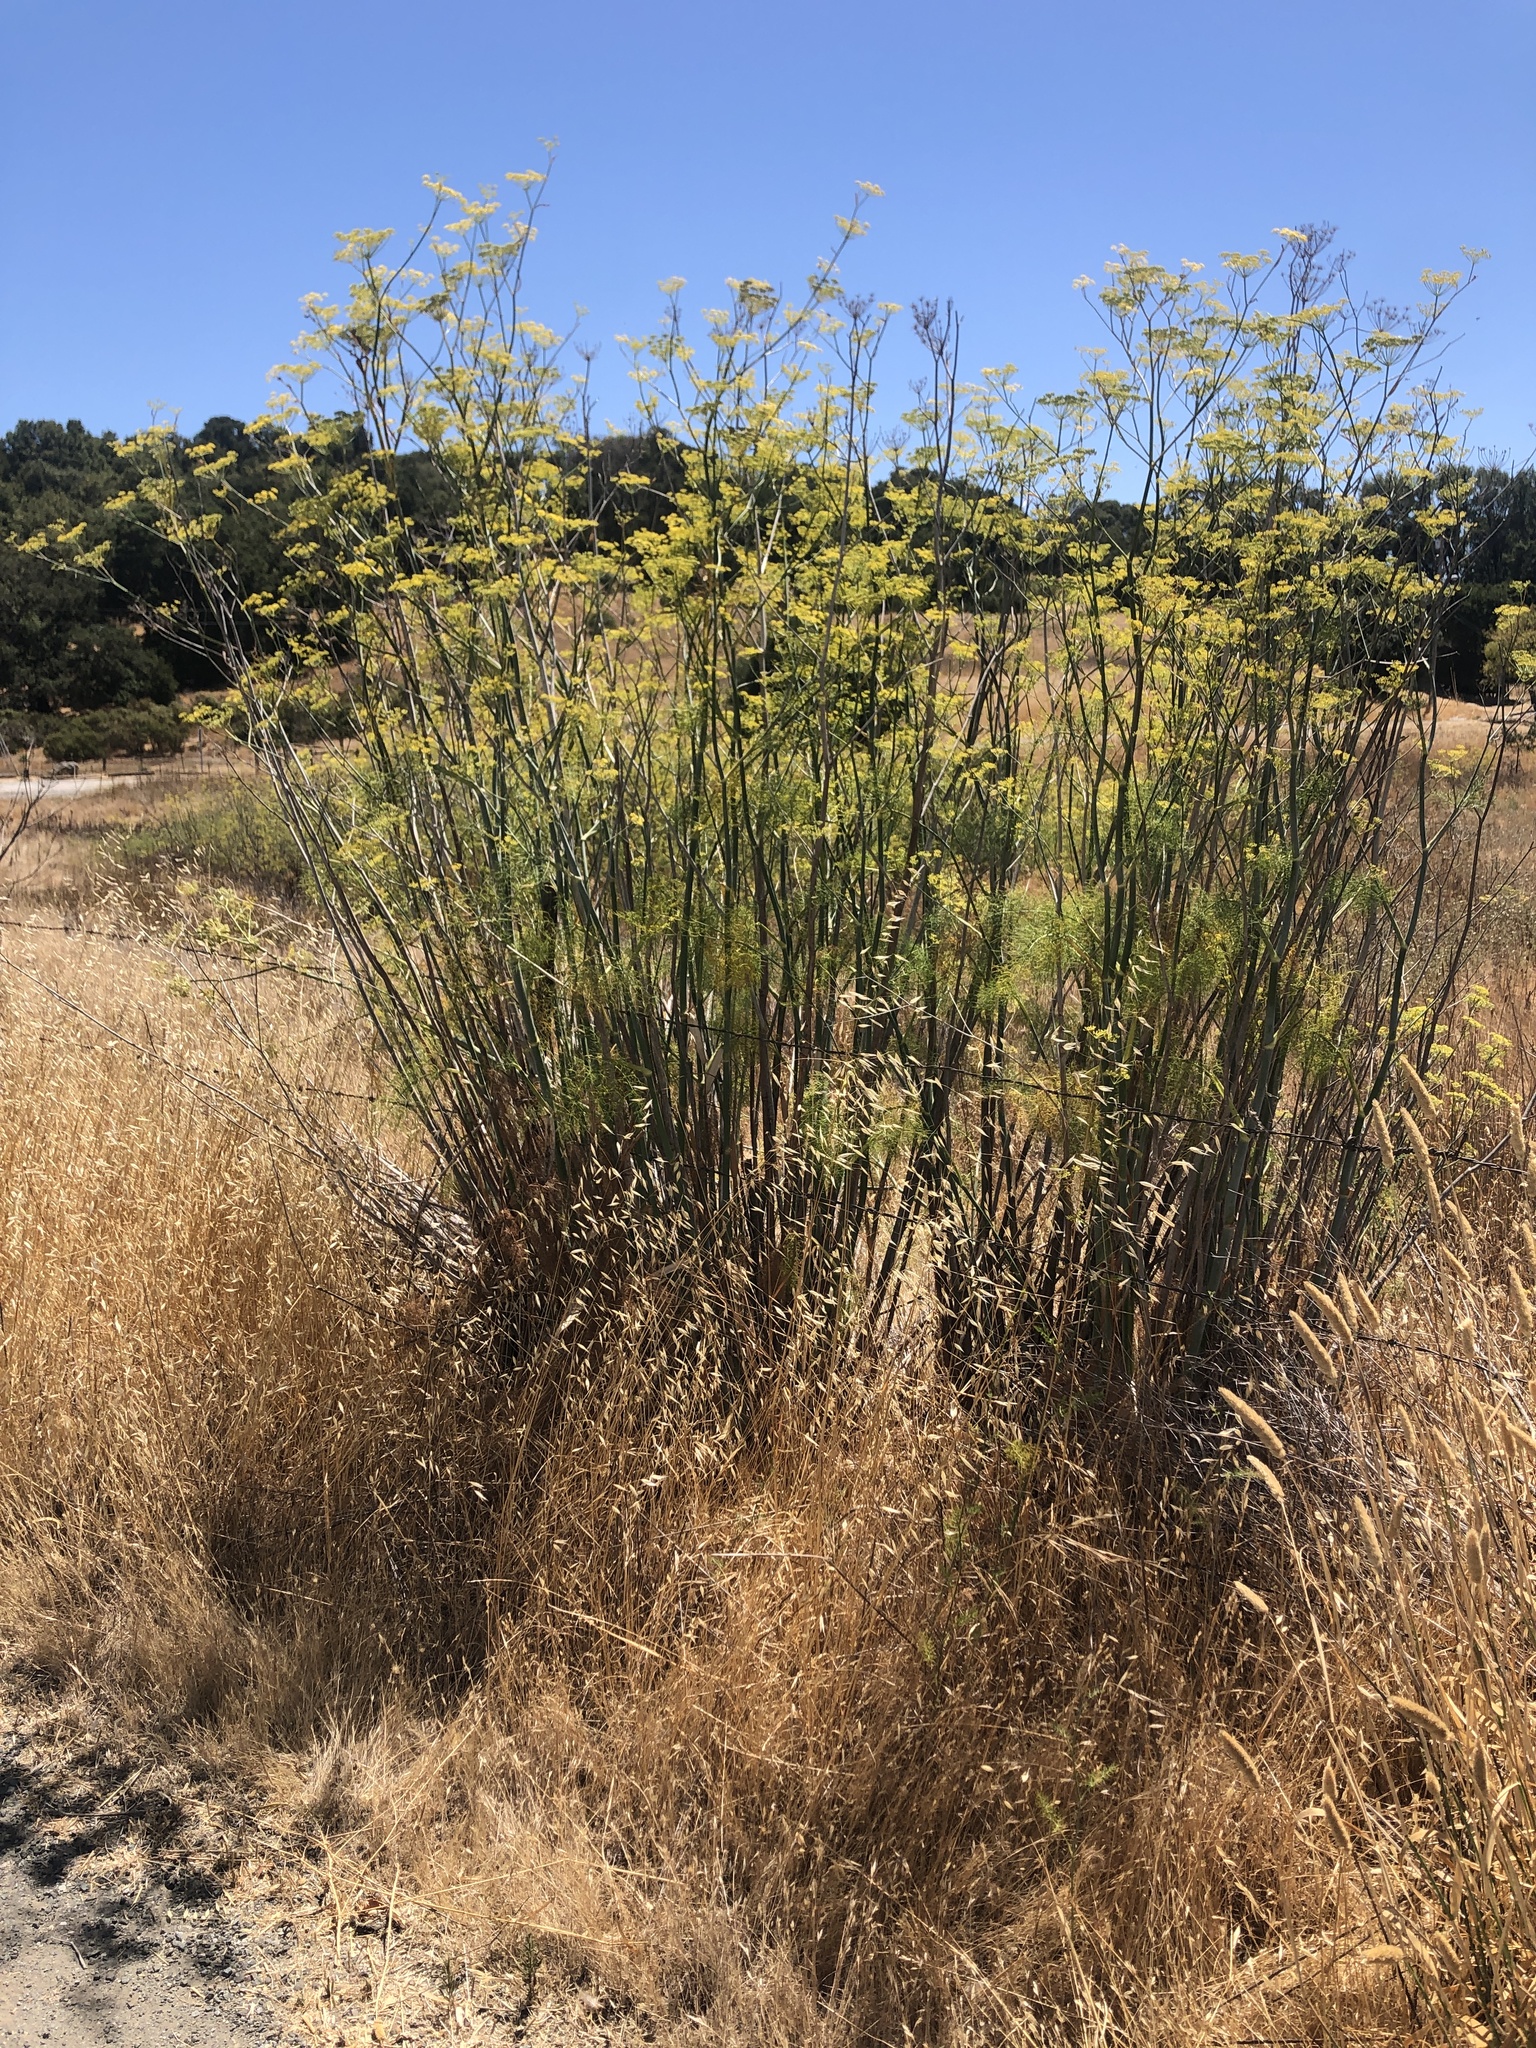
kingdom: Plantae
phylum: Tracheophyta
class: Magnoliopsida
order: Apiales
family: Apiaceae
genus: Foeniculum
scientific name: Foeniculum vulgare
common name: Fennel
